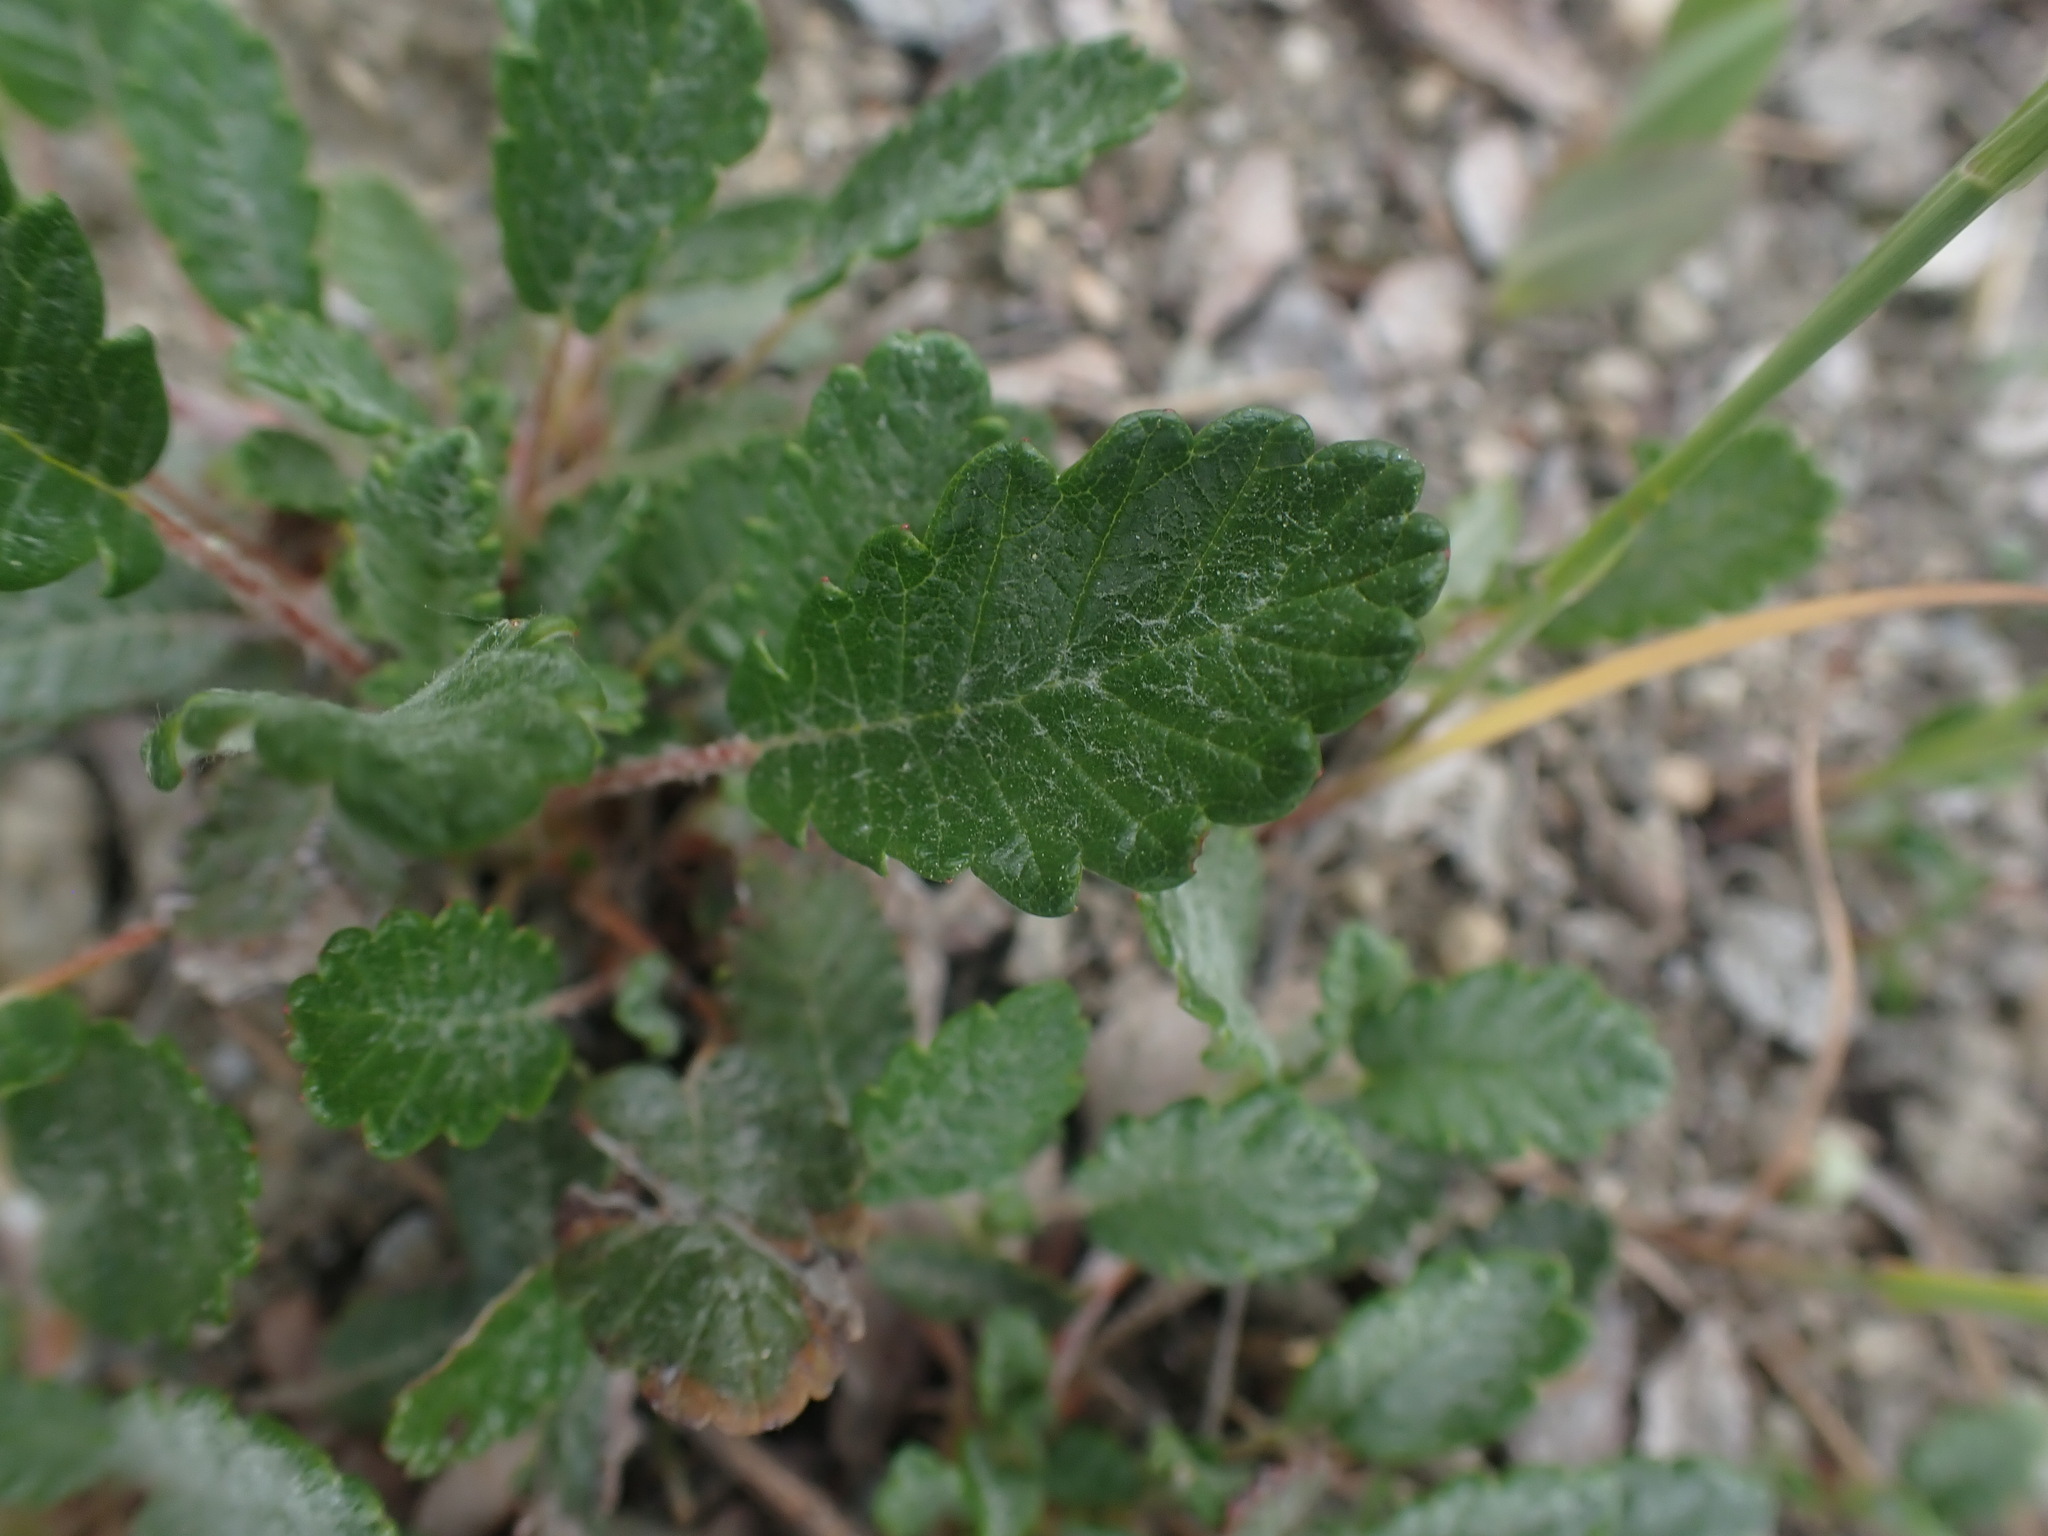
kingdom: Plantae
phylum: Tracheophyta
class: Magnoliopsida
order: Rosales
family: Rosaceae
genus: Dryas
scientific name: Dryas drummondii
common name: Drummond's dryad
